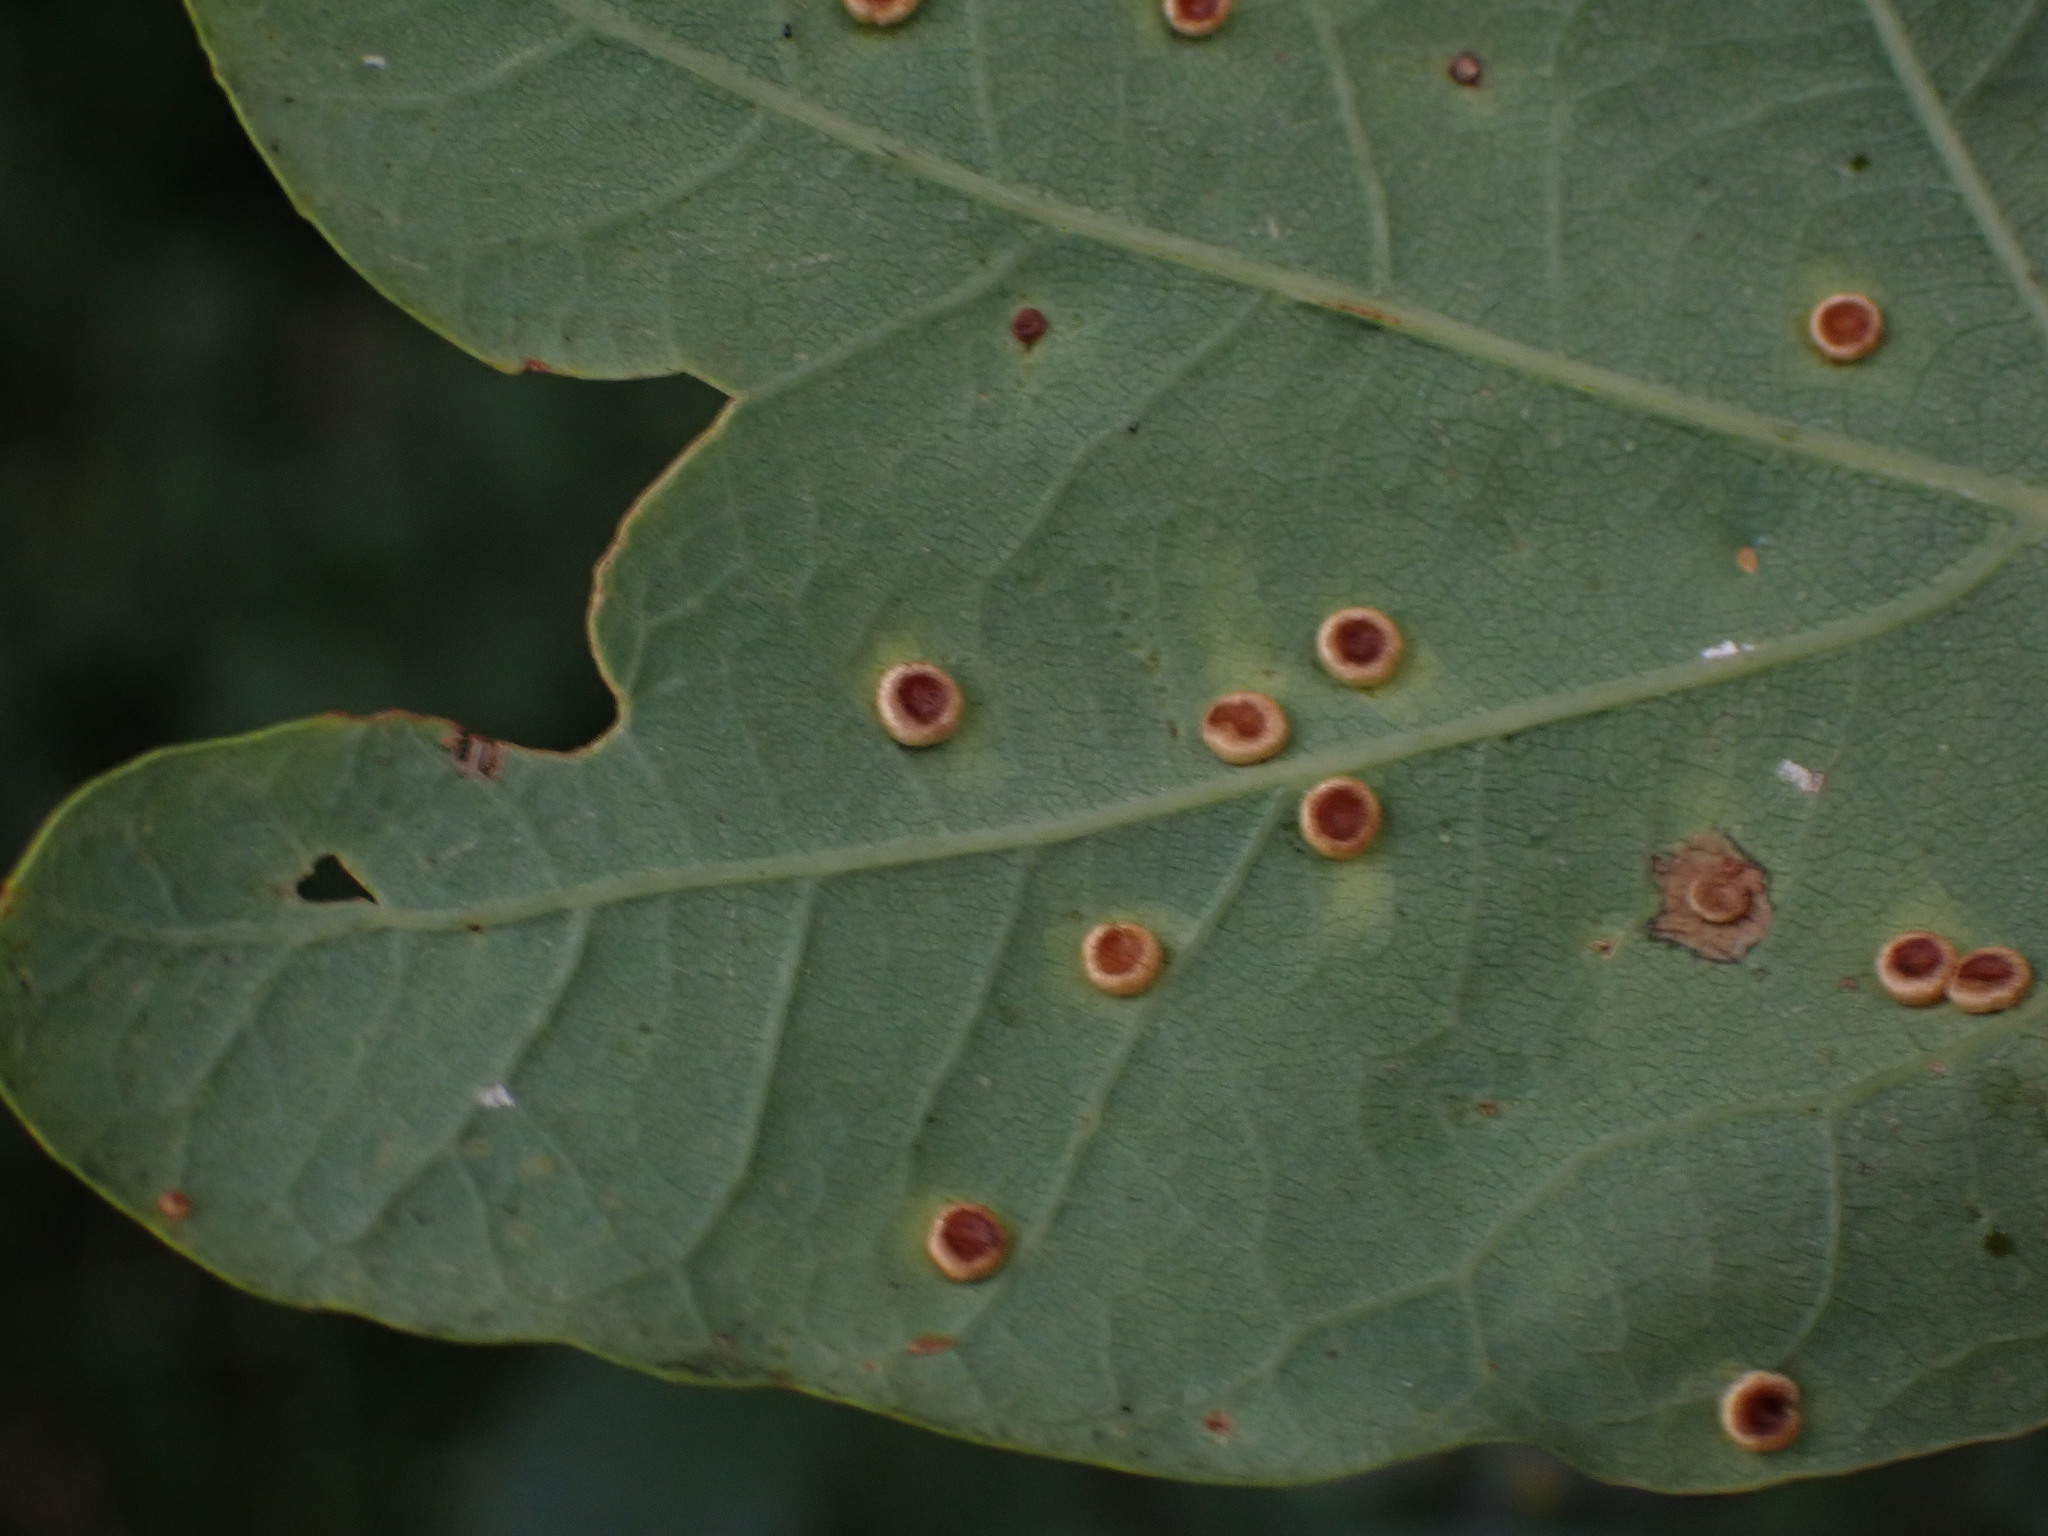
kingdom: Animalia
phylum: Arthropoda
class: Insecta
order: Hymenoptera
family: Cynipidae
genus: Neuroterus
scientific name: Neuroterus numismalis
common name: Silk-button spangle gall
